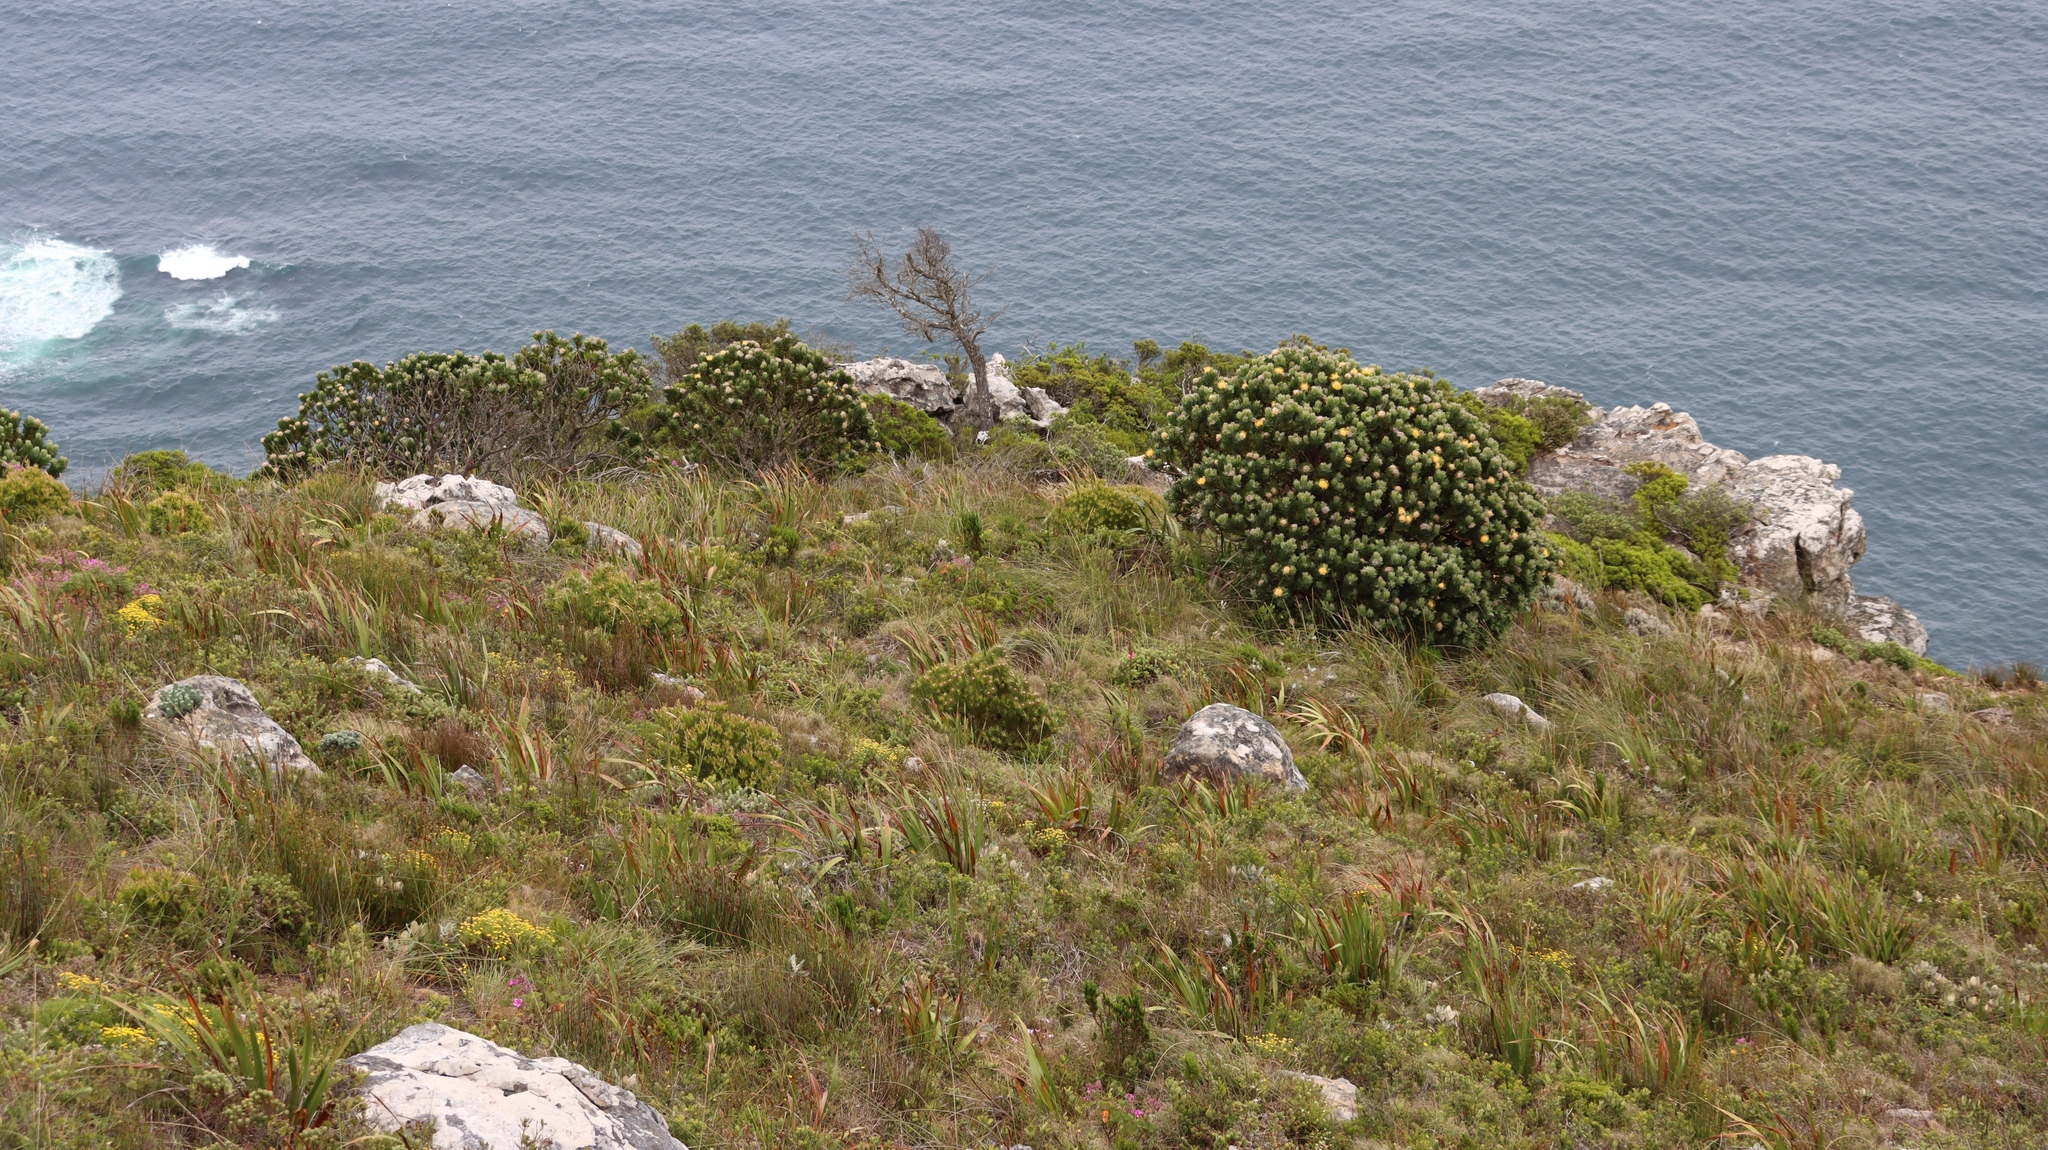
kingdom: Plantae
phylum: Tracheophyta
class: Magnoliopsida
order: Proteales
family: Proteaceae
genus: Leucospermum
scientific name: Leucospermum conocarpodendron
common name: Tree pincushion
